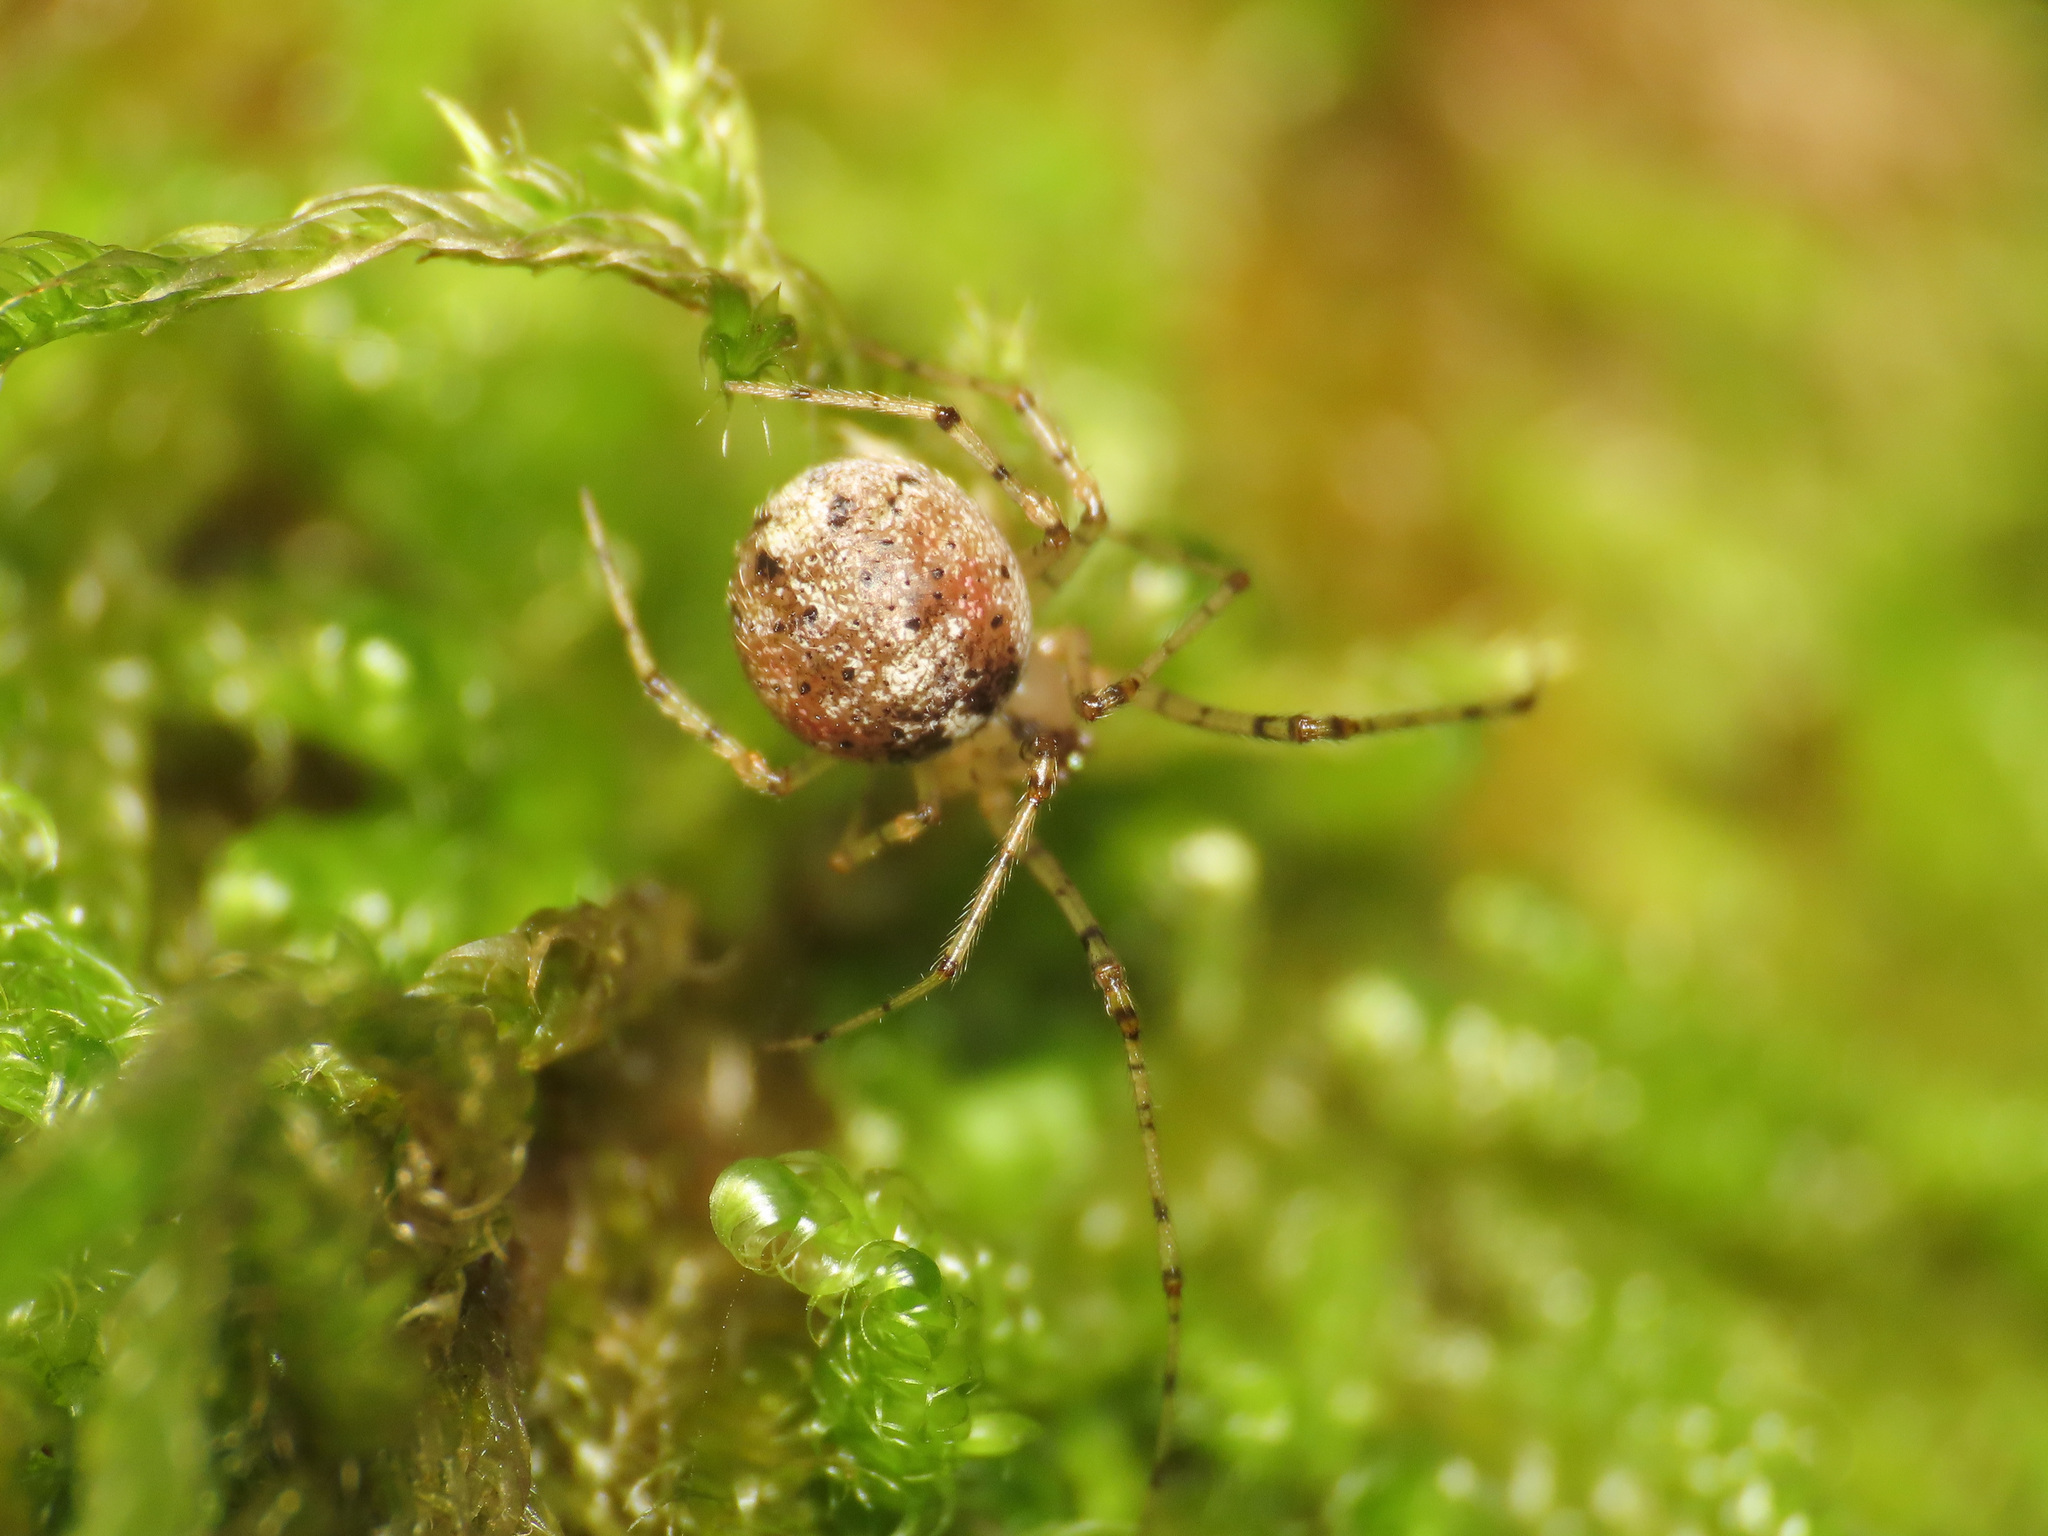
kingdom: Animalia
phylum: Arthropoda
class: Arachnida
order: Araneae
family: Theridiidae
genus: Platnickina
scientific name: Platnickina tincta
